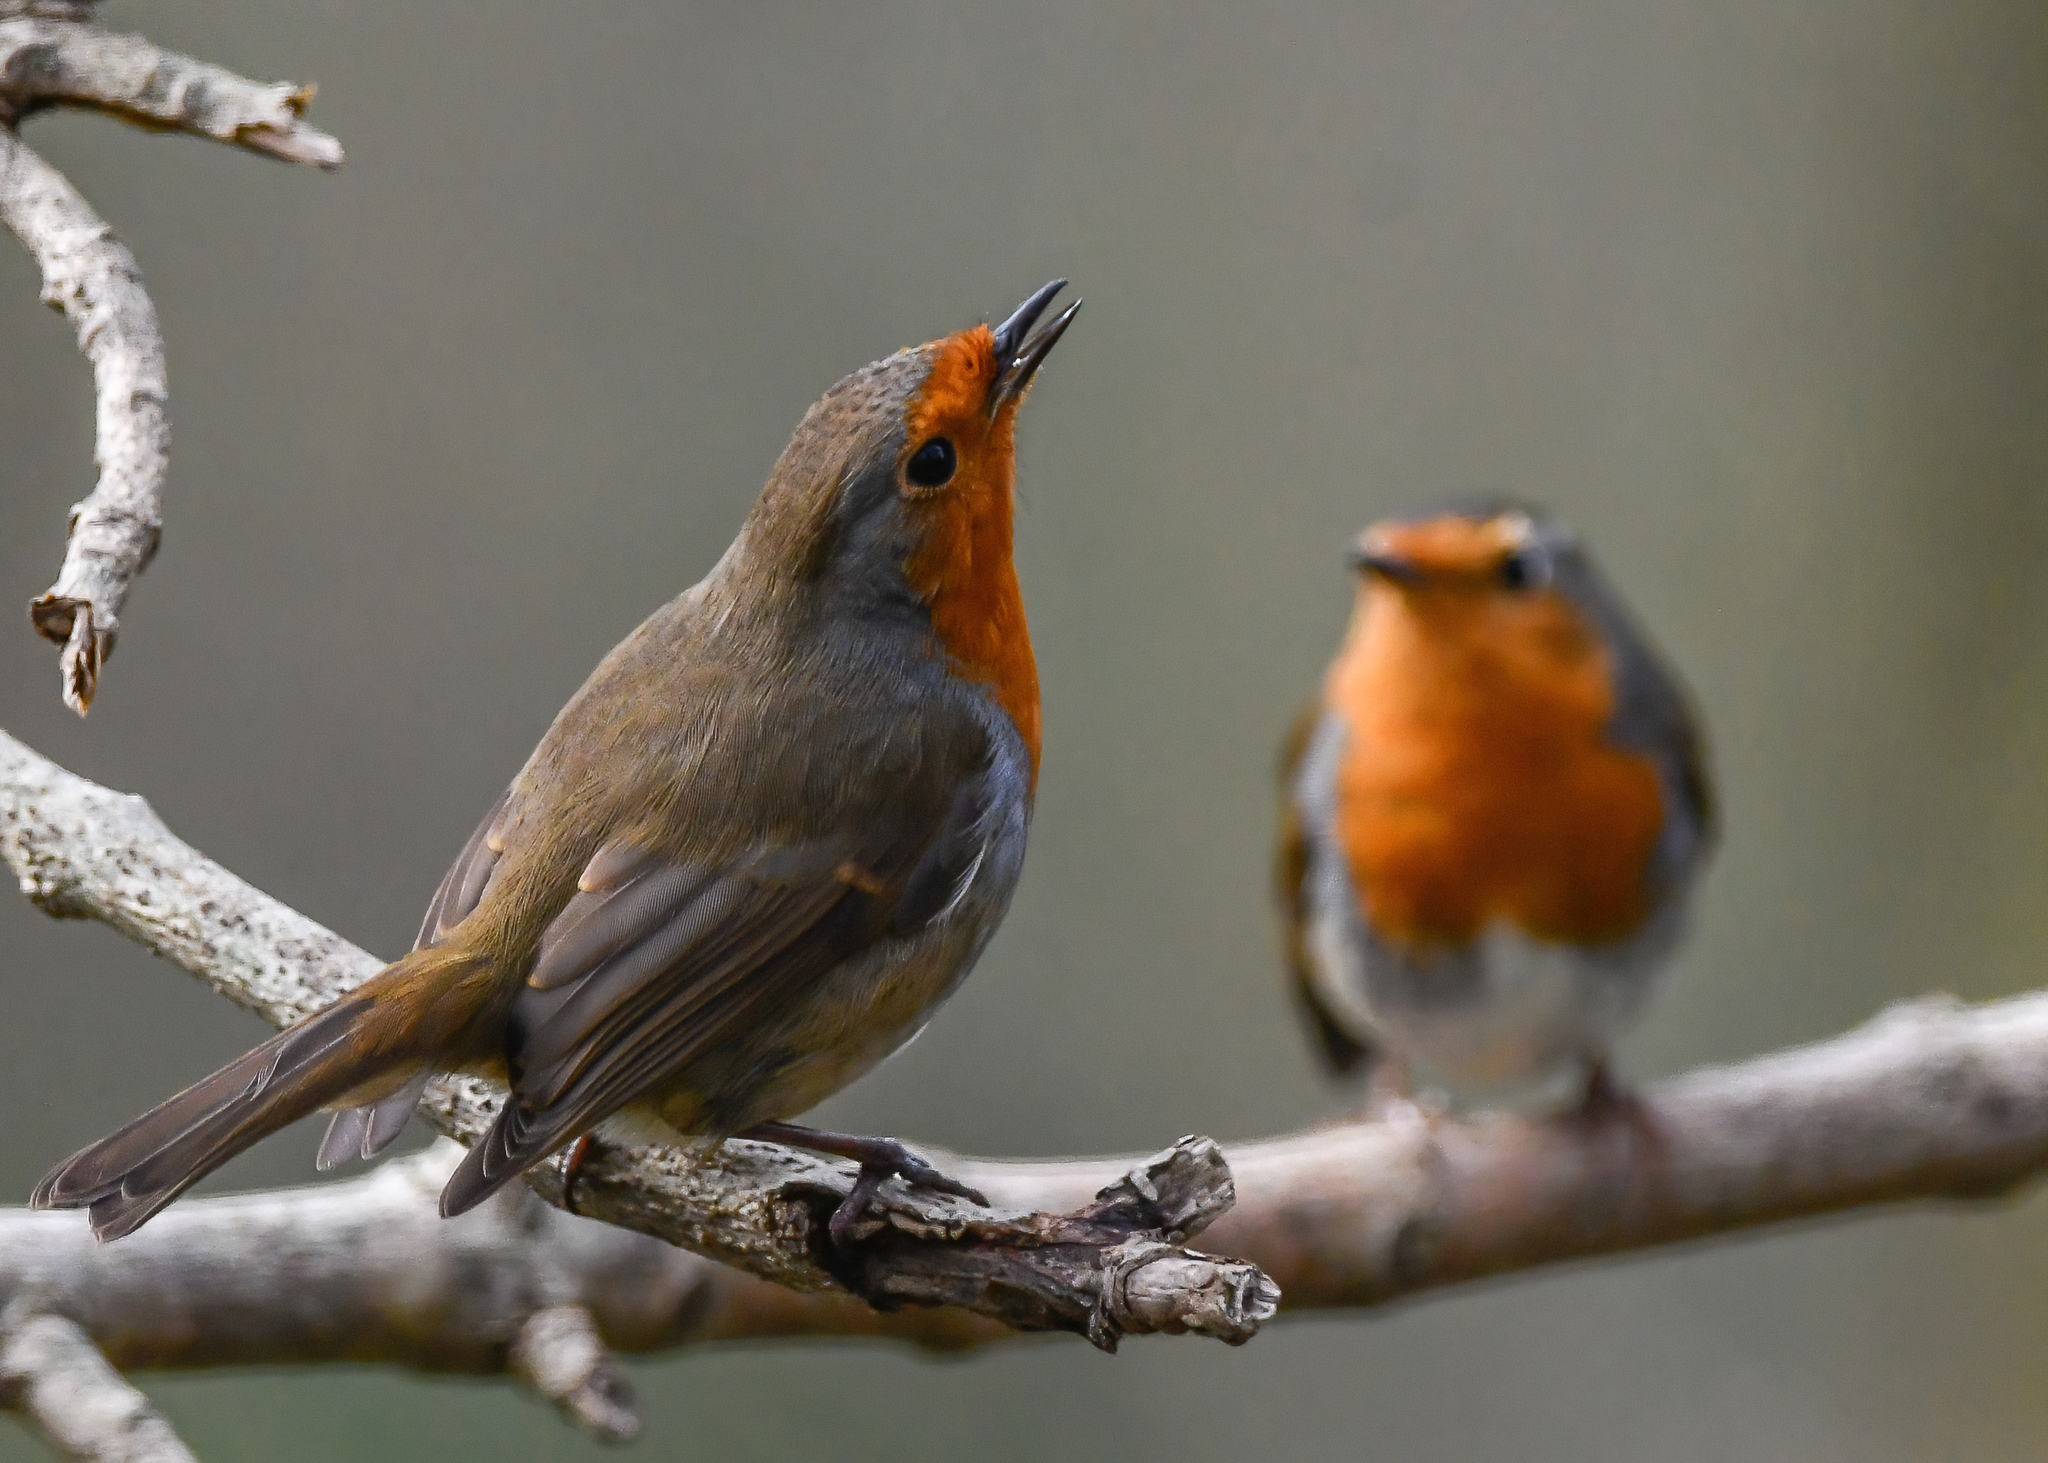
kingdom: Animalia
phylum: Chordata
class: Aves
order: Passeriformes
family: Muscicapidae
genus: Erithacus
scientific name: Erithacus rubecula
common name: European robin
